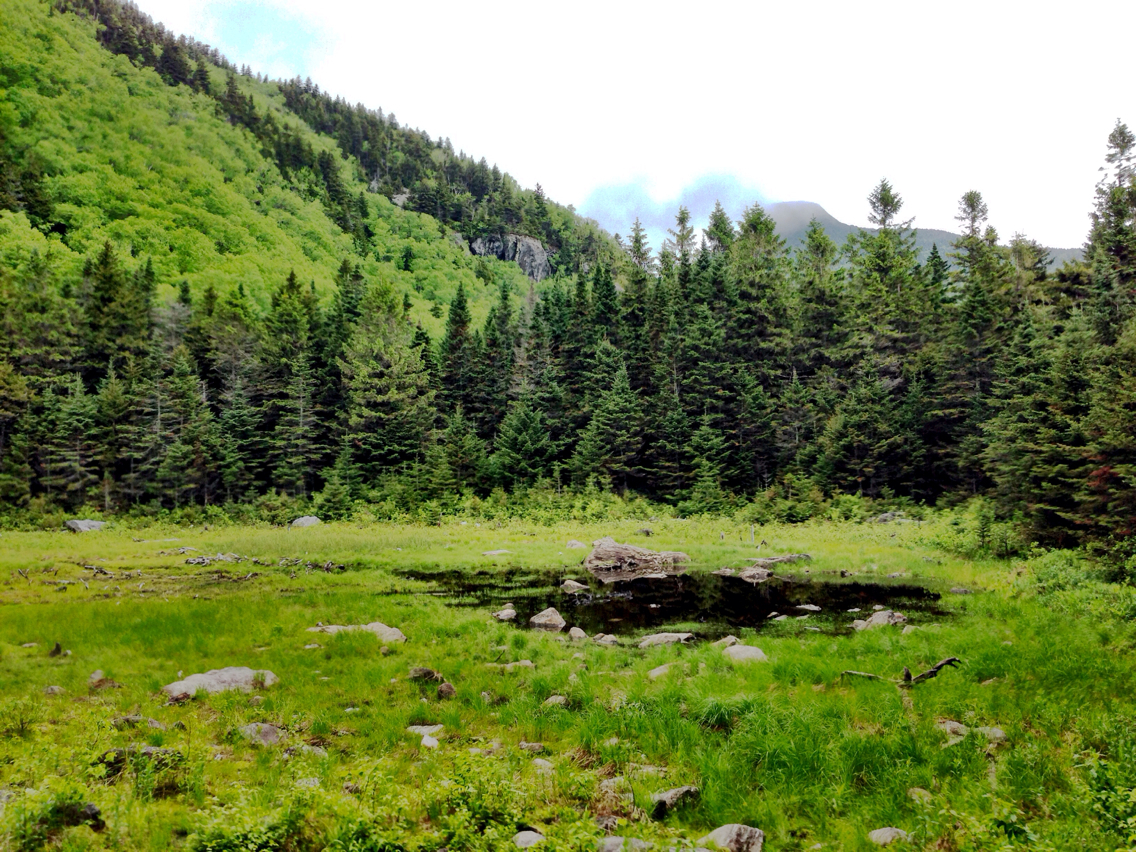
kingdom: Animalia
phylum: Chordata
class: Mammalia
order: Rodentia
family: Castoridae
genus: Castor
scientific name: Castor canadensis
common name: American beaver
